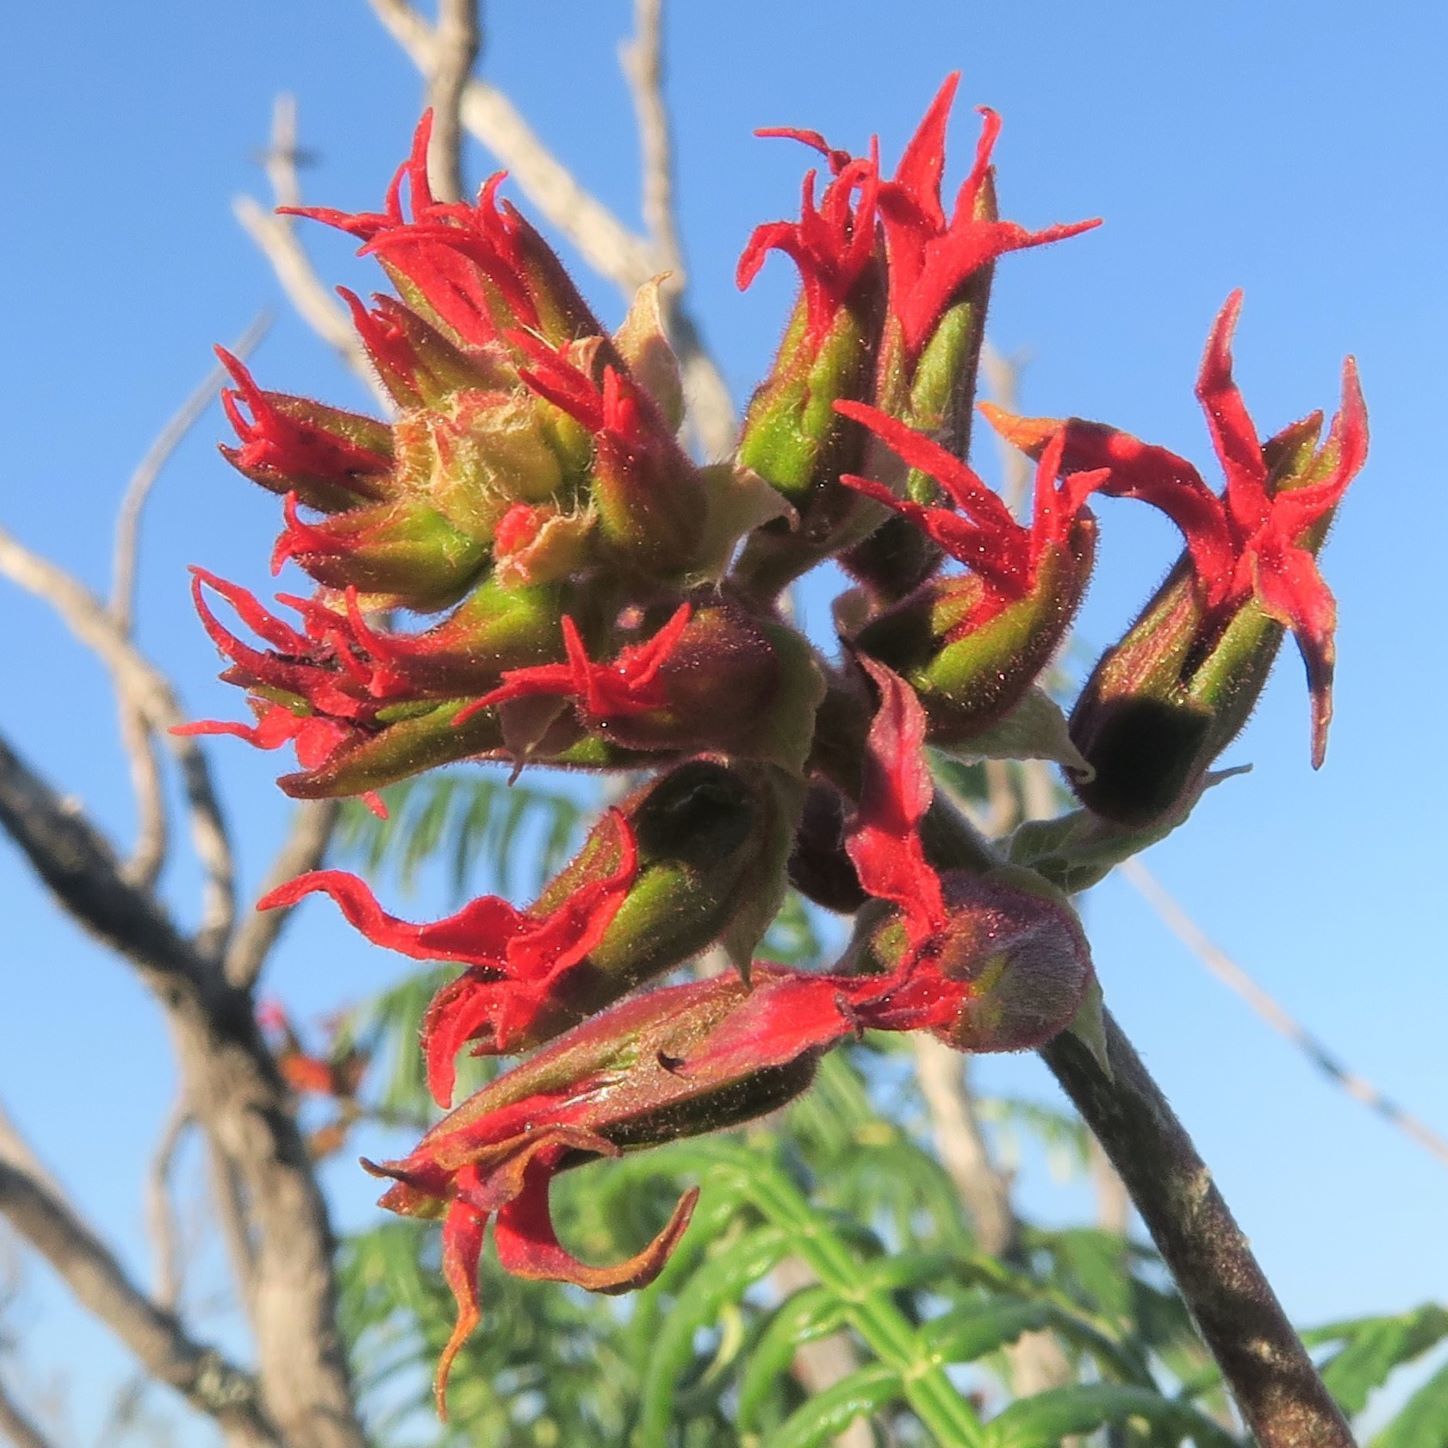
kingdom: Plantae
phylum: Tracheophyta
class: Magnoliopsida
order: Geraniales
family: Melianthaceae
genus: Melianthus
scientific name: Melianthus pectinatus
